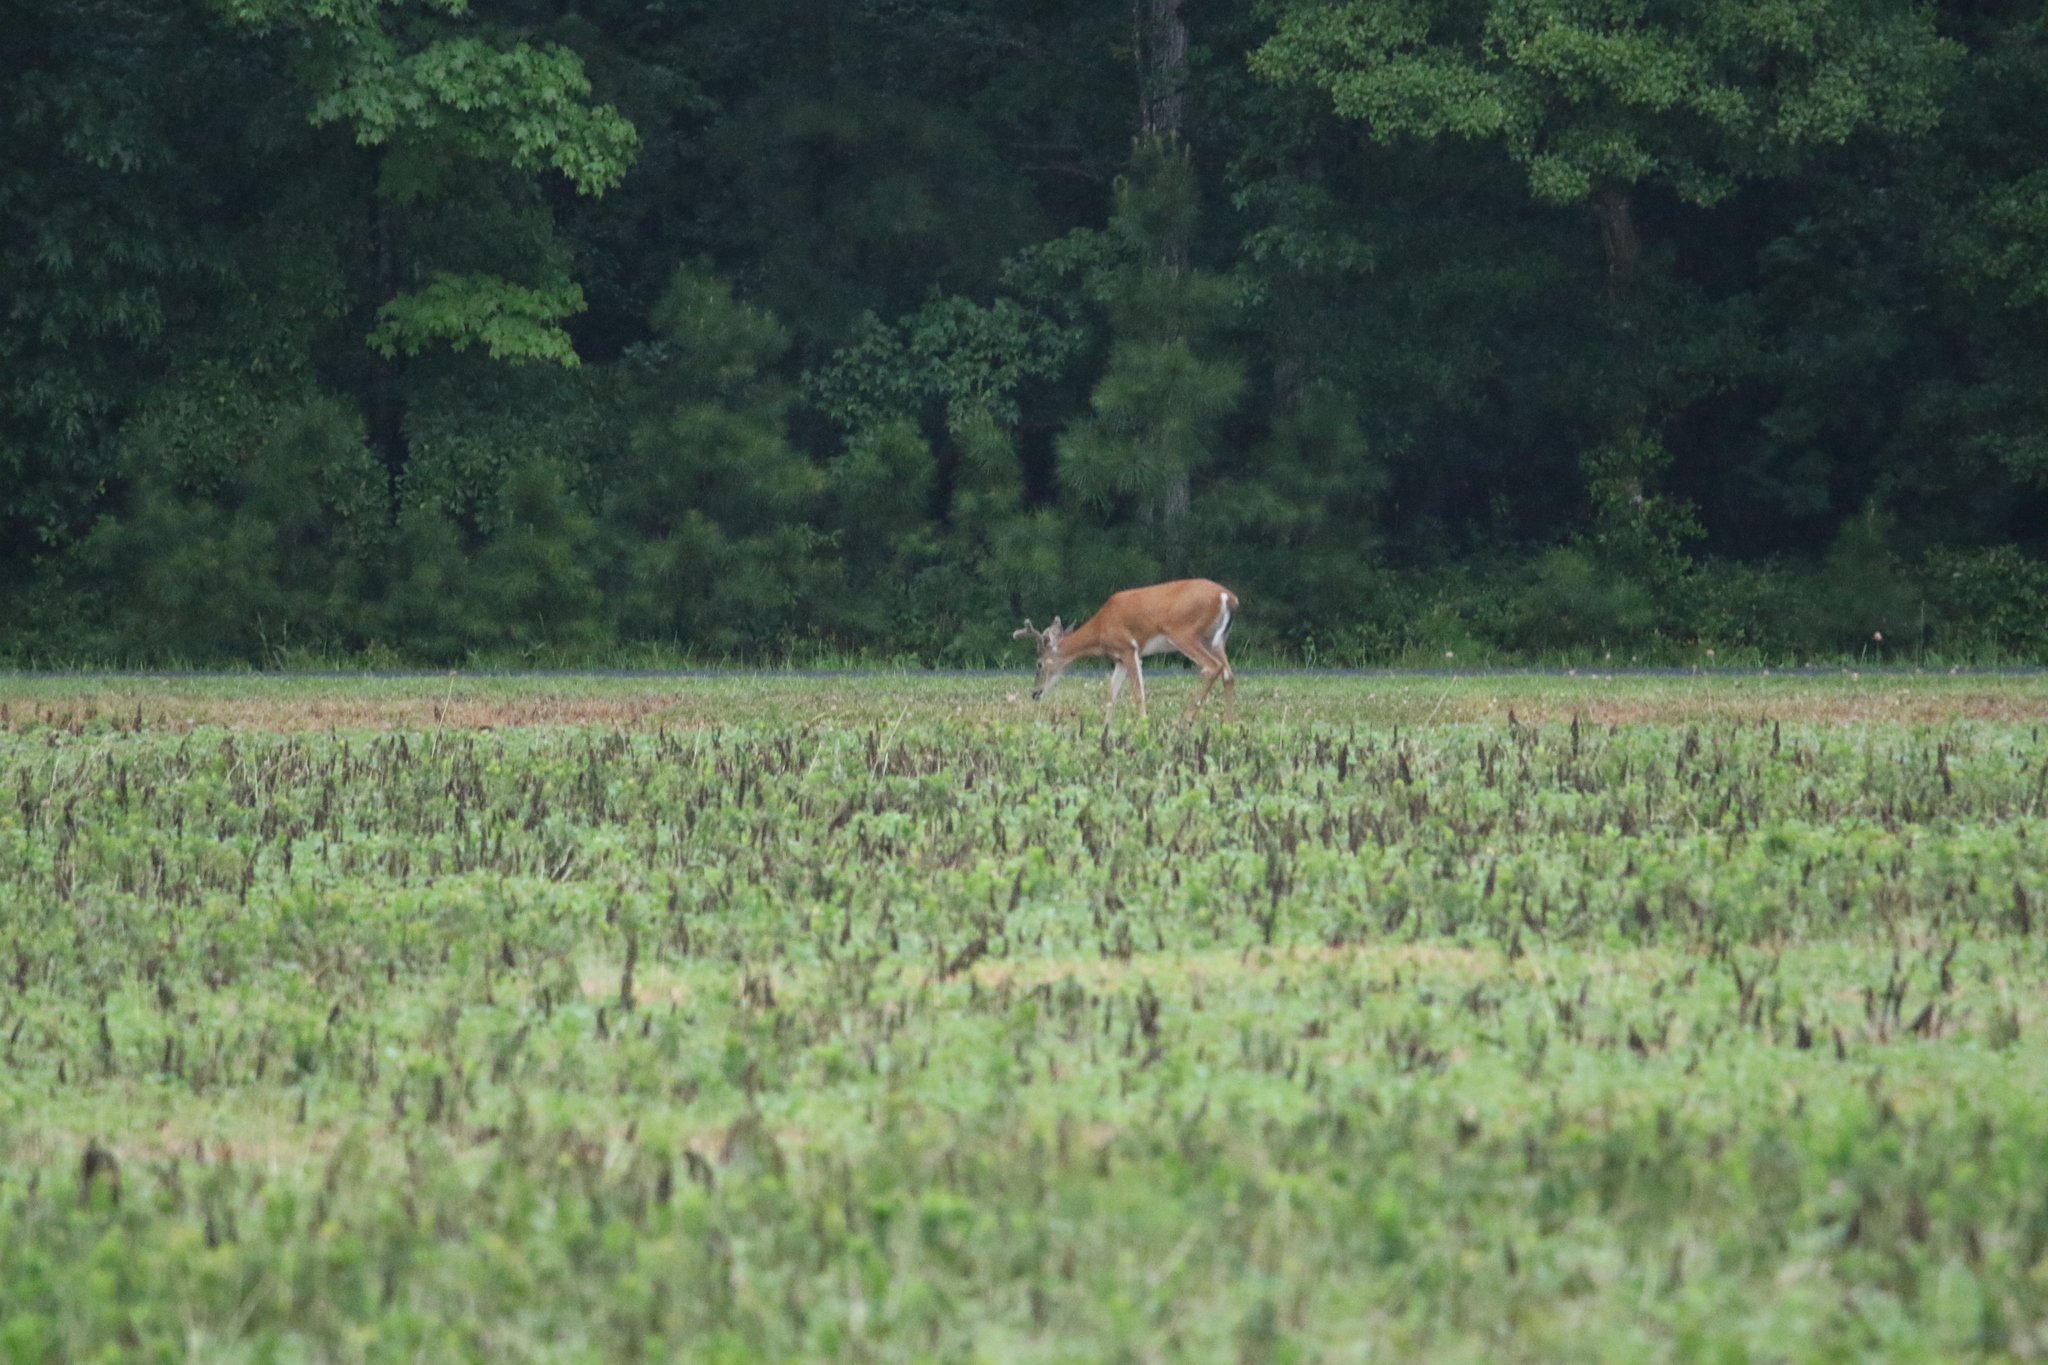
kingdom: Animalia
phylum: Chordata
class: Mammalia
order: Artiodactyla
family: Cervidae
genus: Odocoileus
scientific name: Odocoileus virginianus
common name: White-tailed deer
